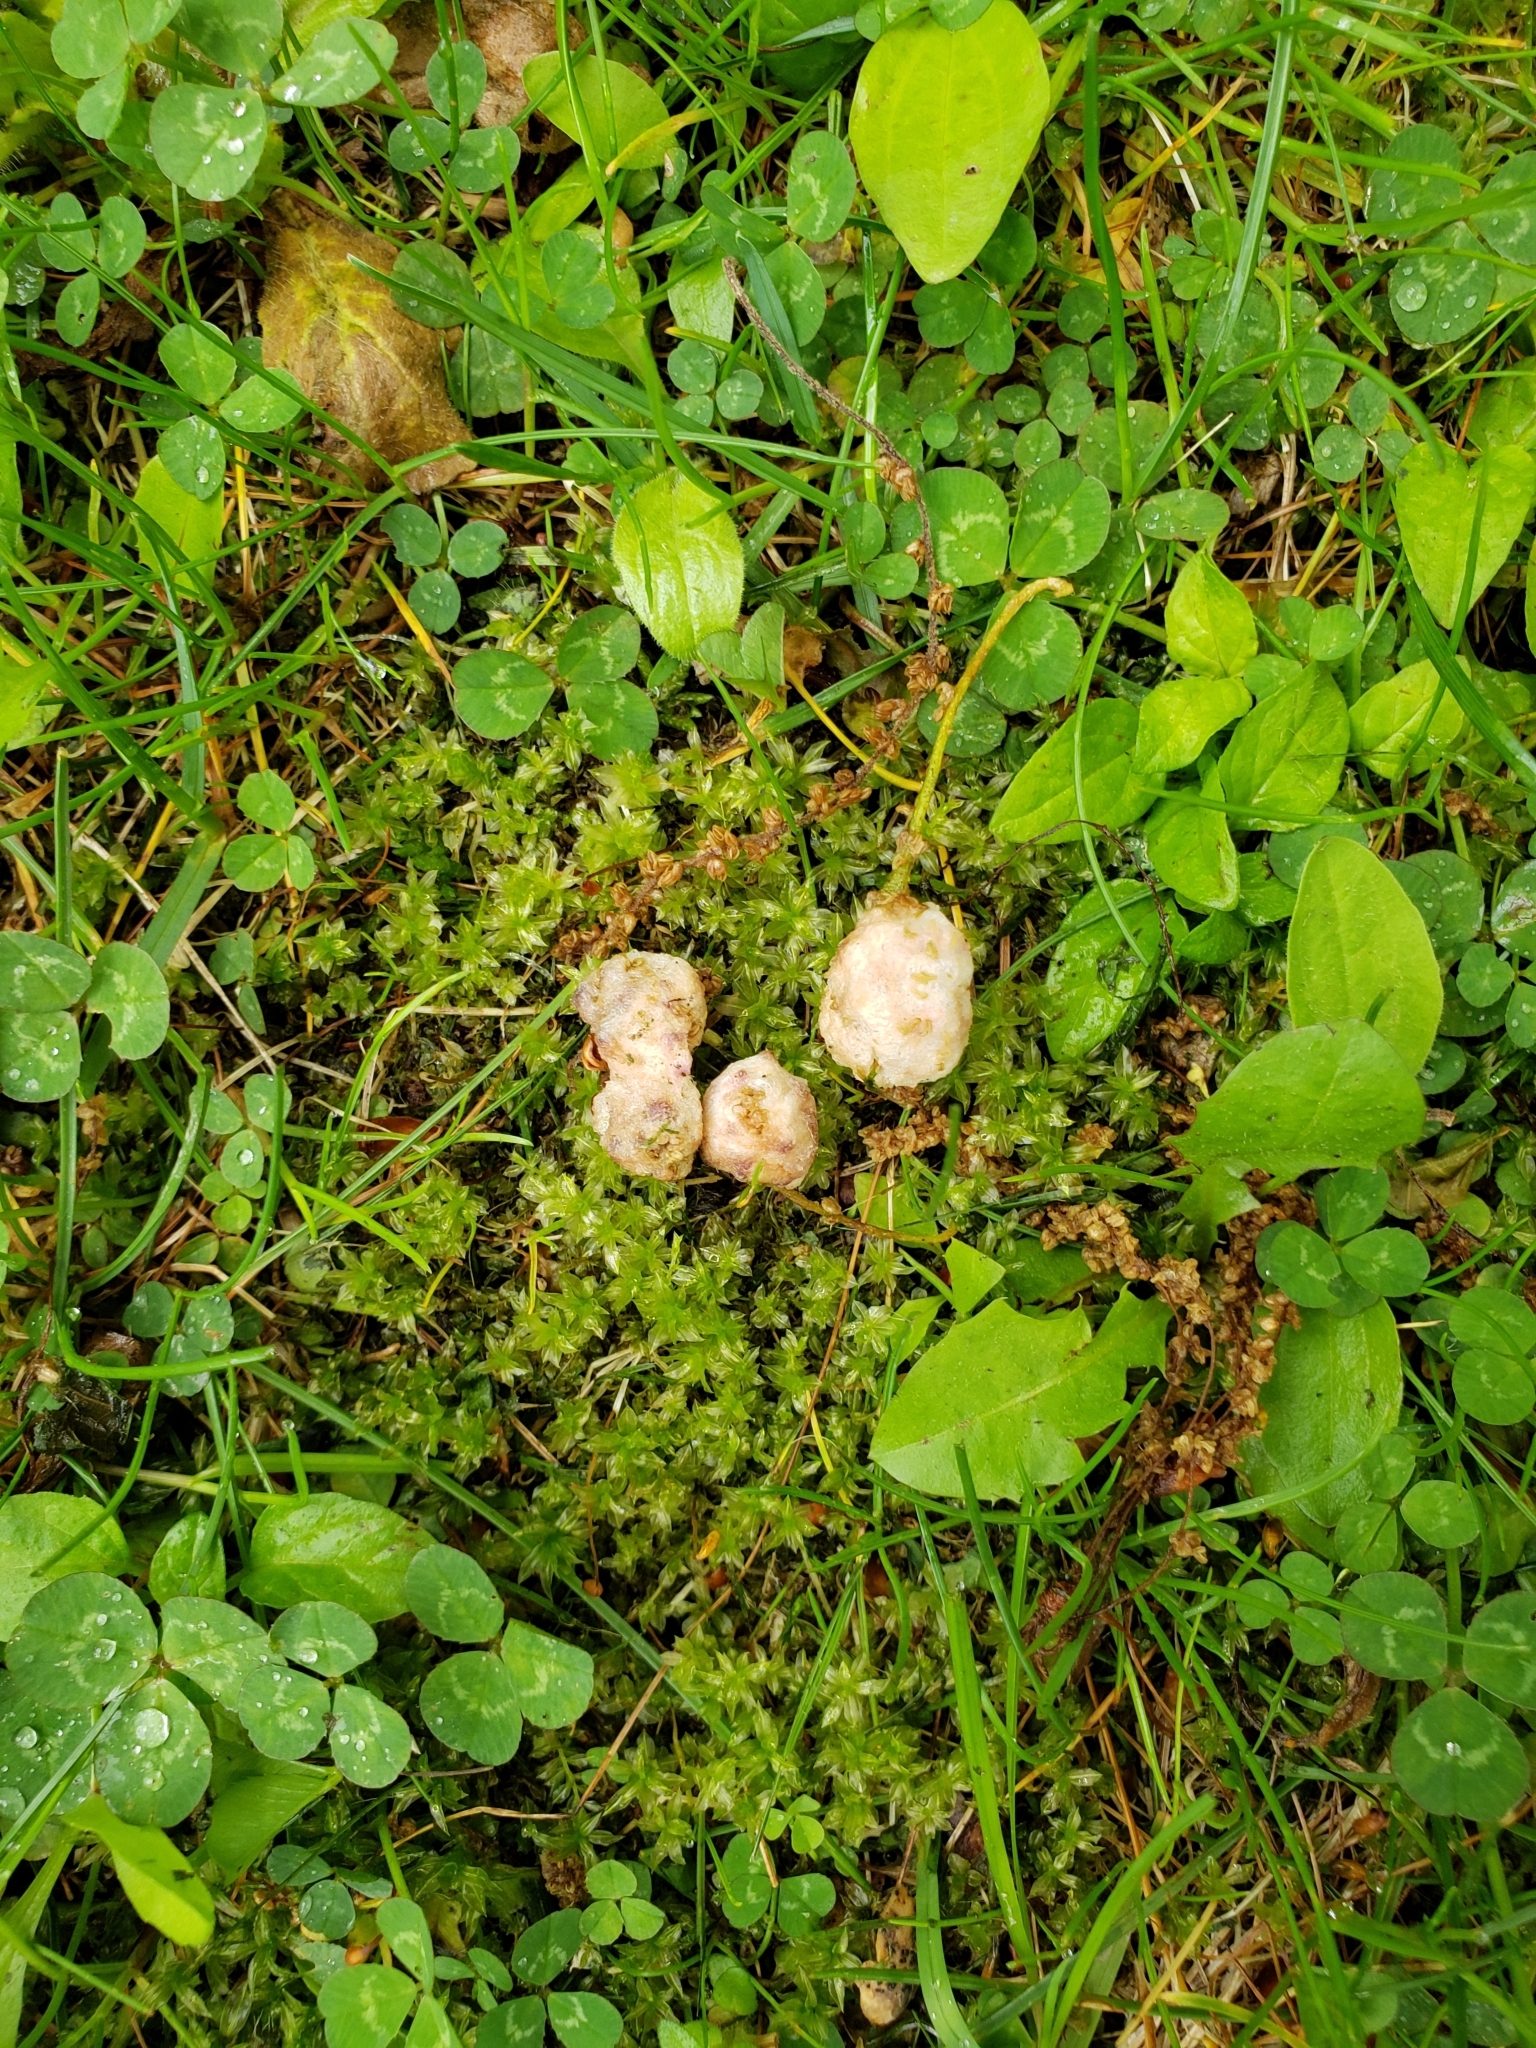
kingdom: Animalia
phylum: Arthropoda
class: Insecta
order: Hymenoptera
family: Cynipidae
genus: Callirhytis
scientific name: Callirhytis
